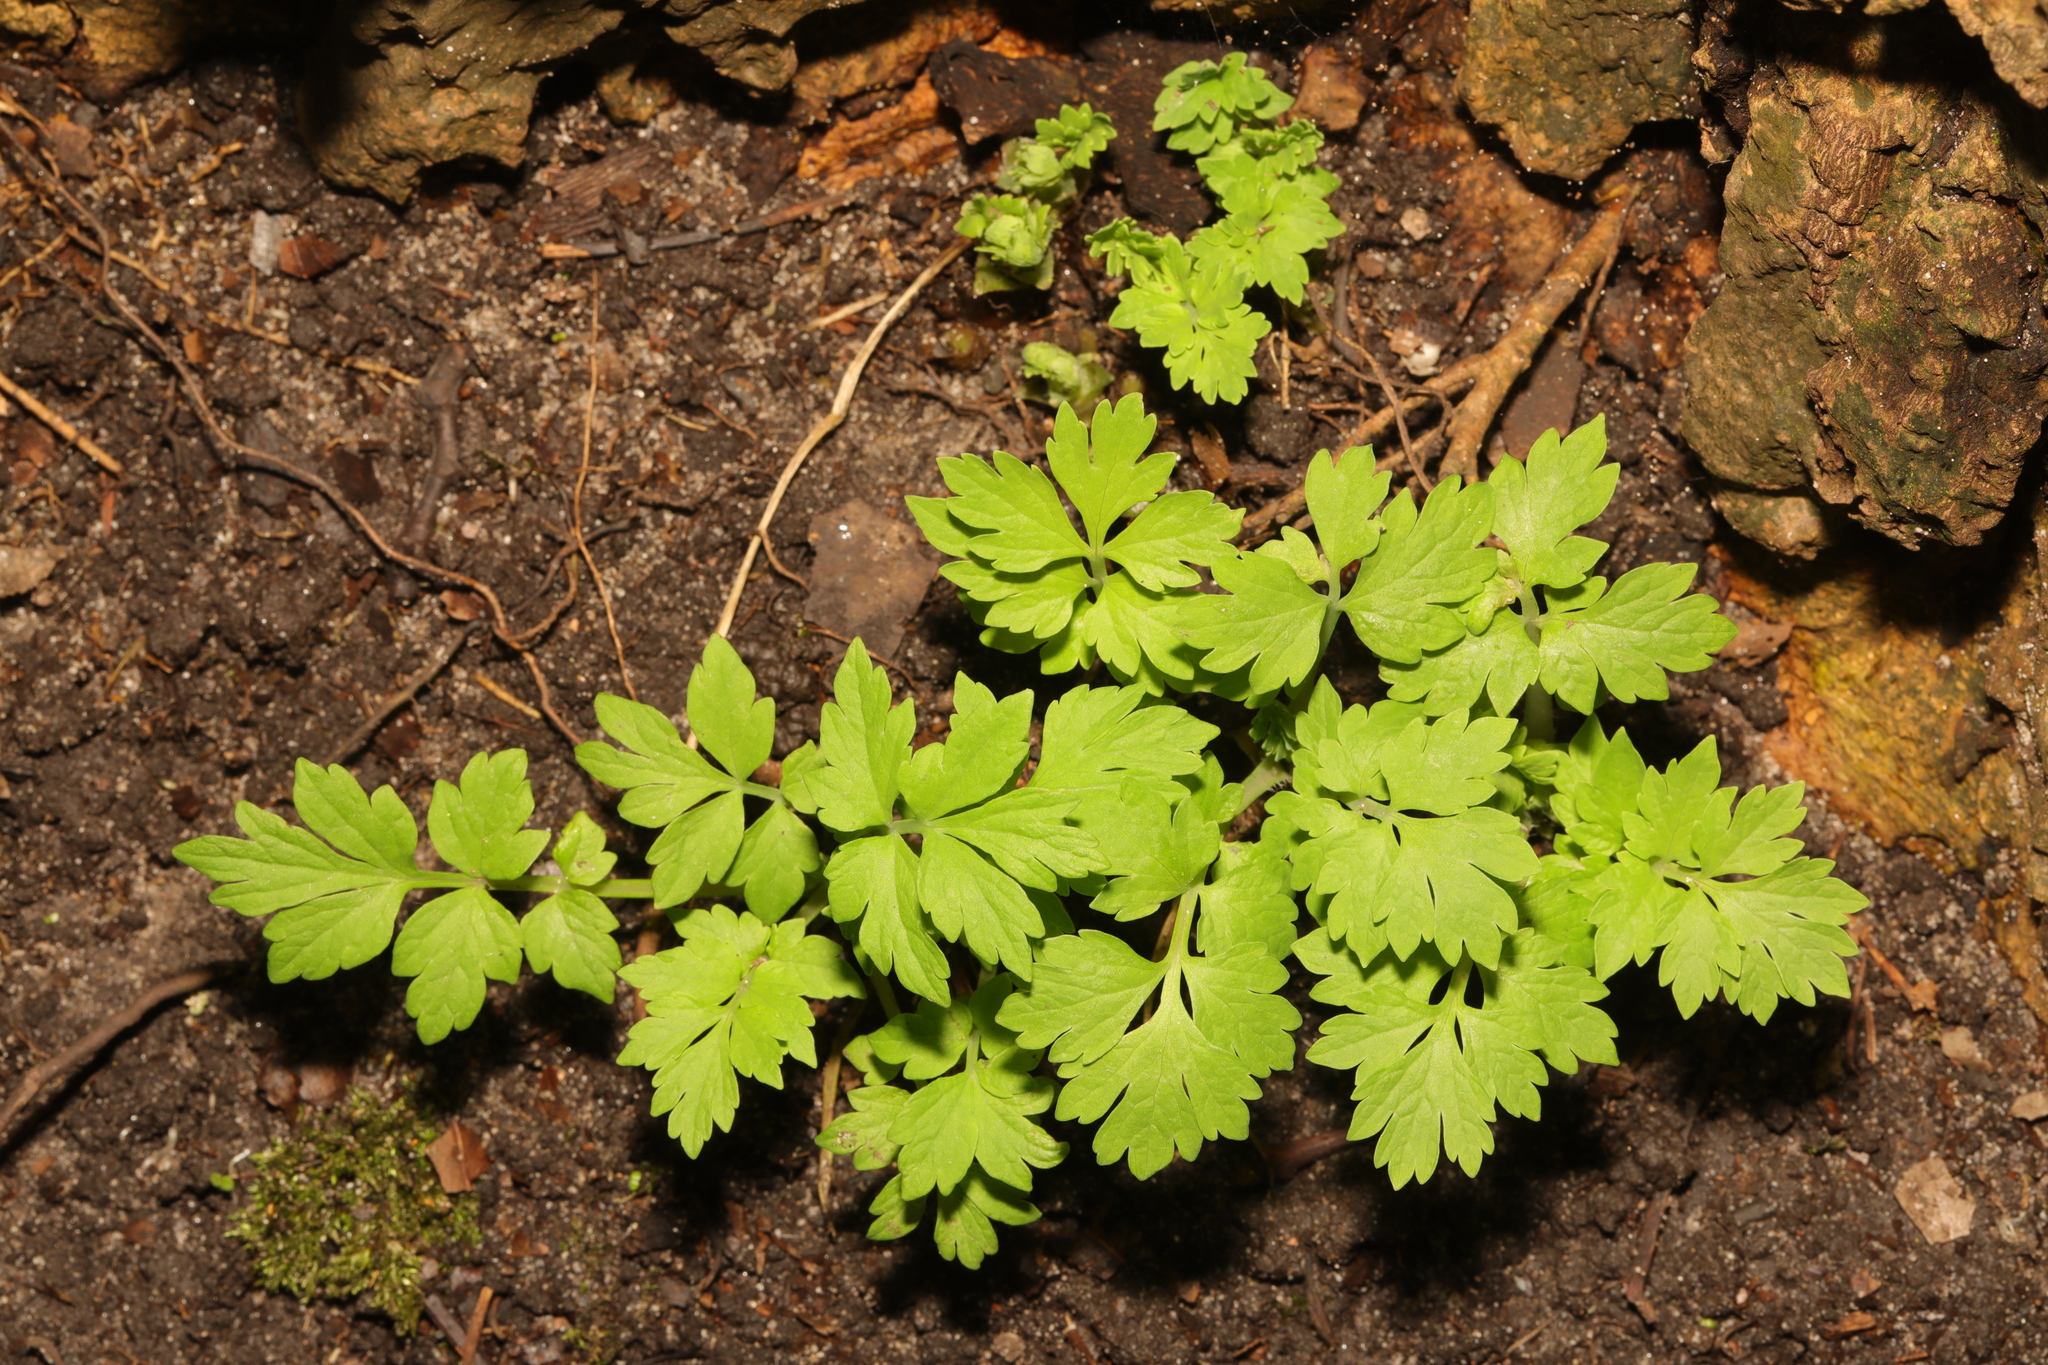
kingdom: Plantae
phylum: Tracheophyta
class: Magnoliopsida
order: Ranunculales
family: Papaveraceae
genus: Papaver
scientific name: Papaver cambricum
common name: Poppy
